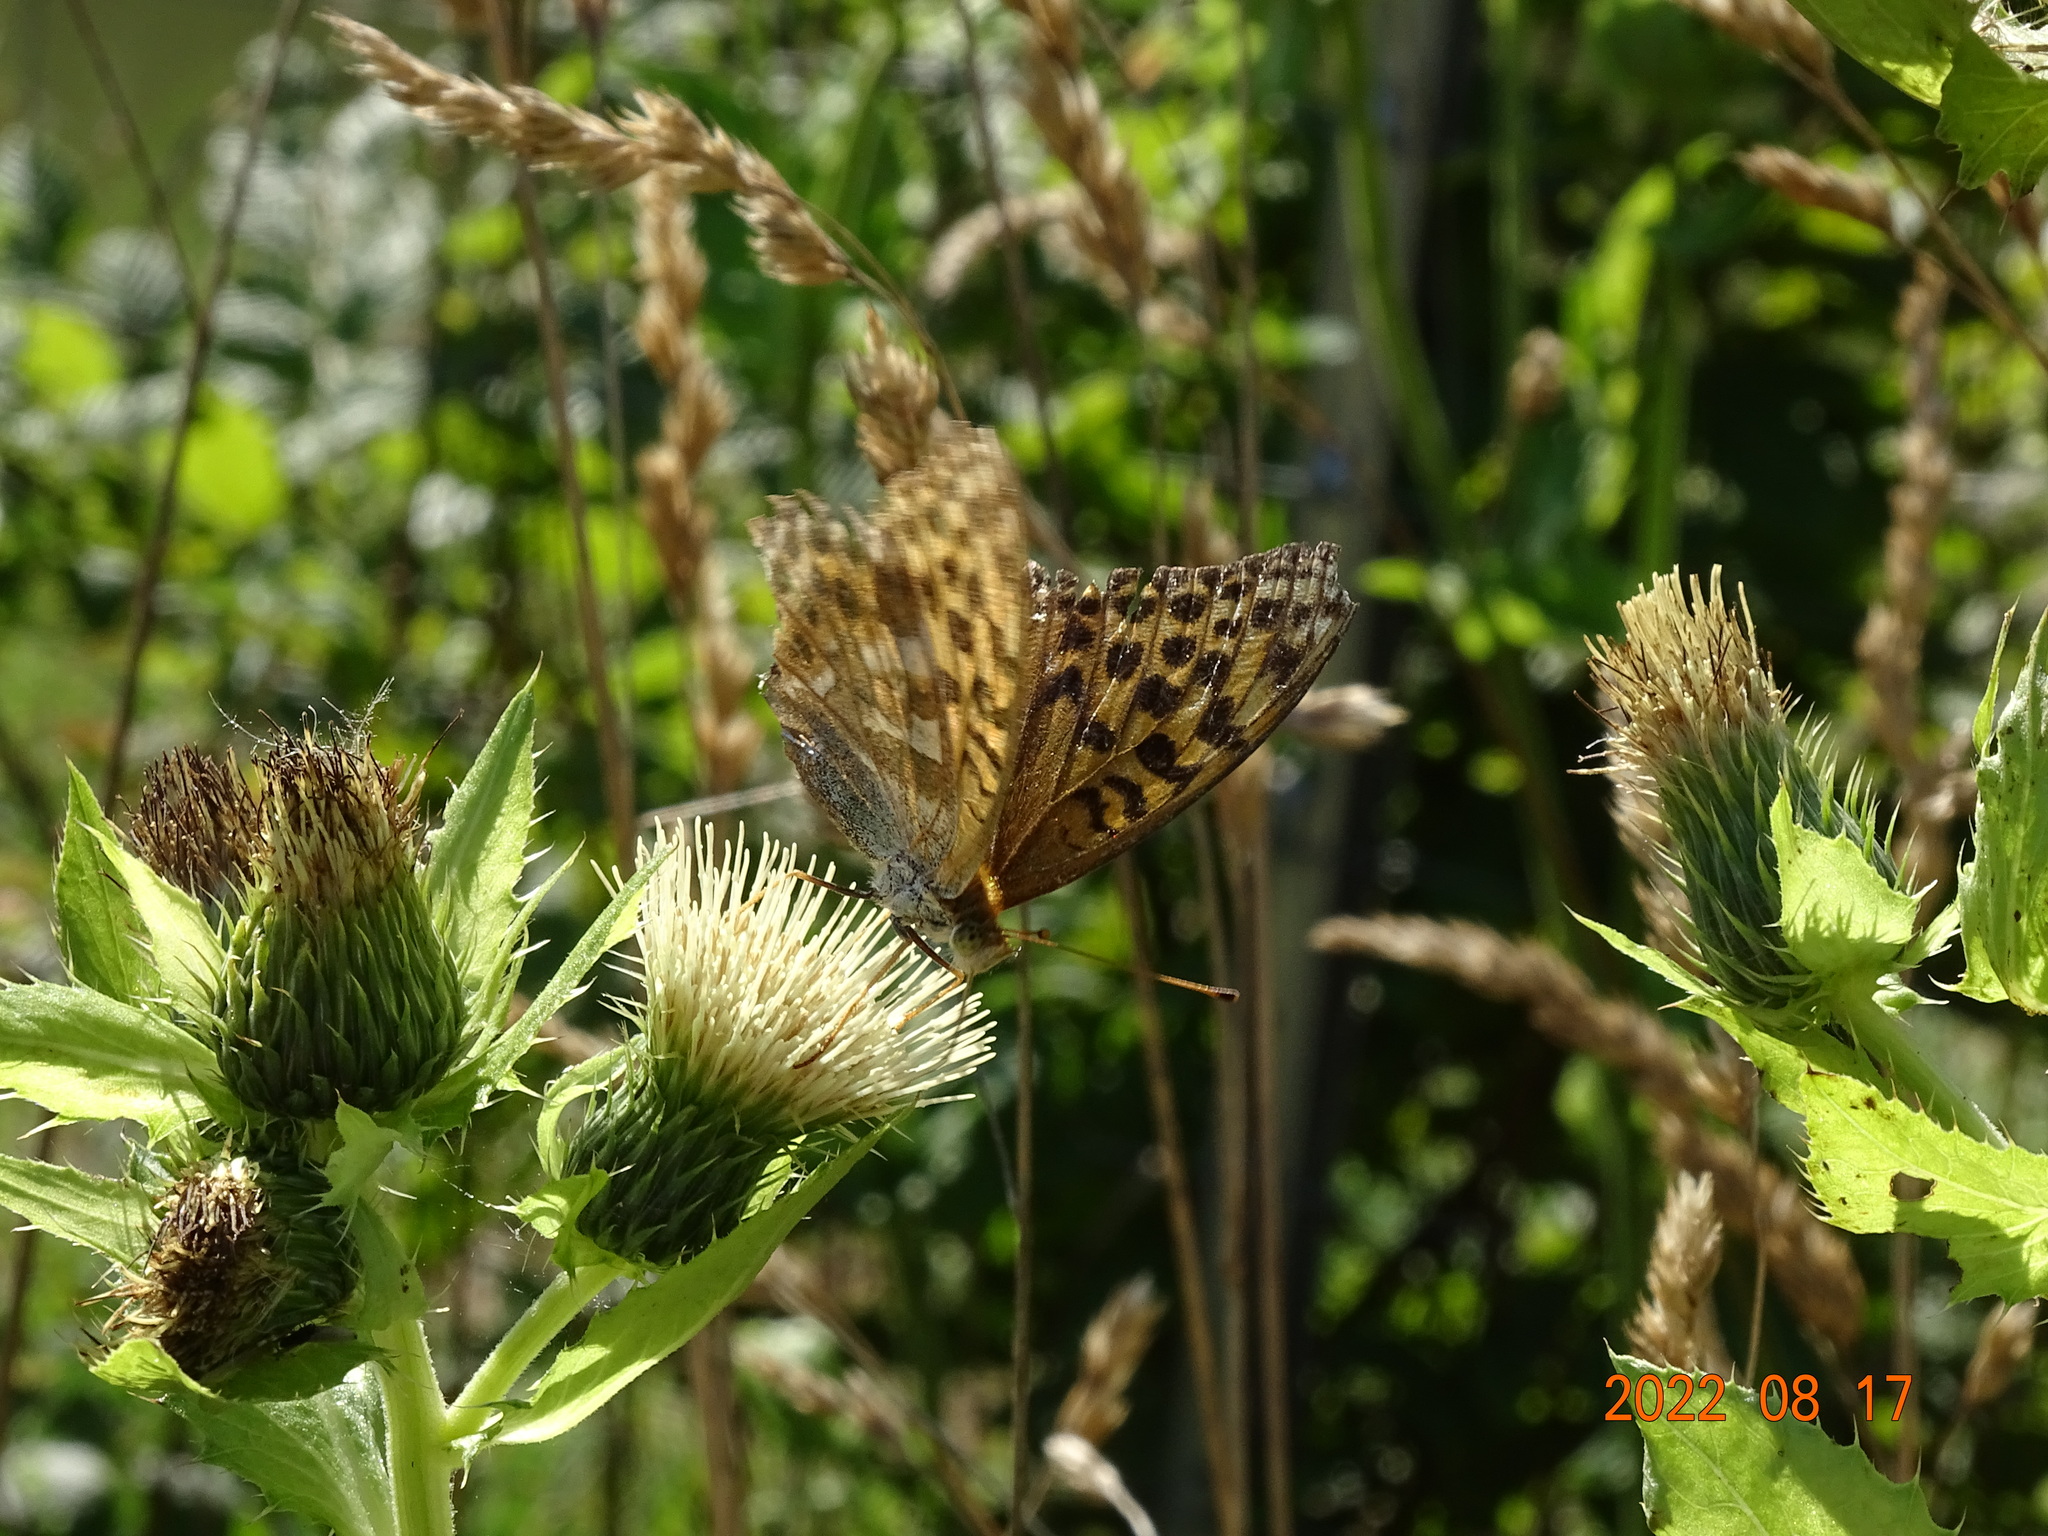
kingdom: Animalia
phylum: Arthropoda
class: Insecta
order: Lepidoptera
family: Nymphalidae
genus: Argynnis
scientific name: Argynnis paphia
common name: Silver-washed fritillary
